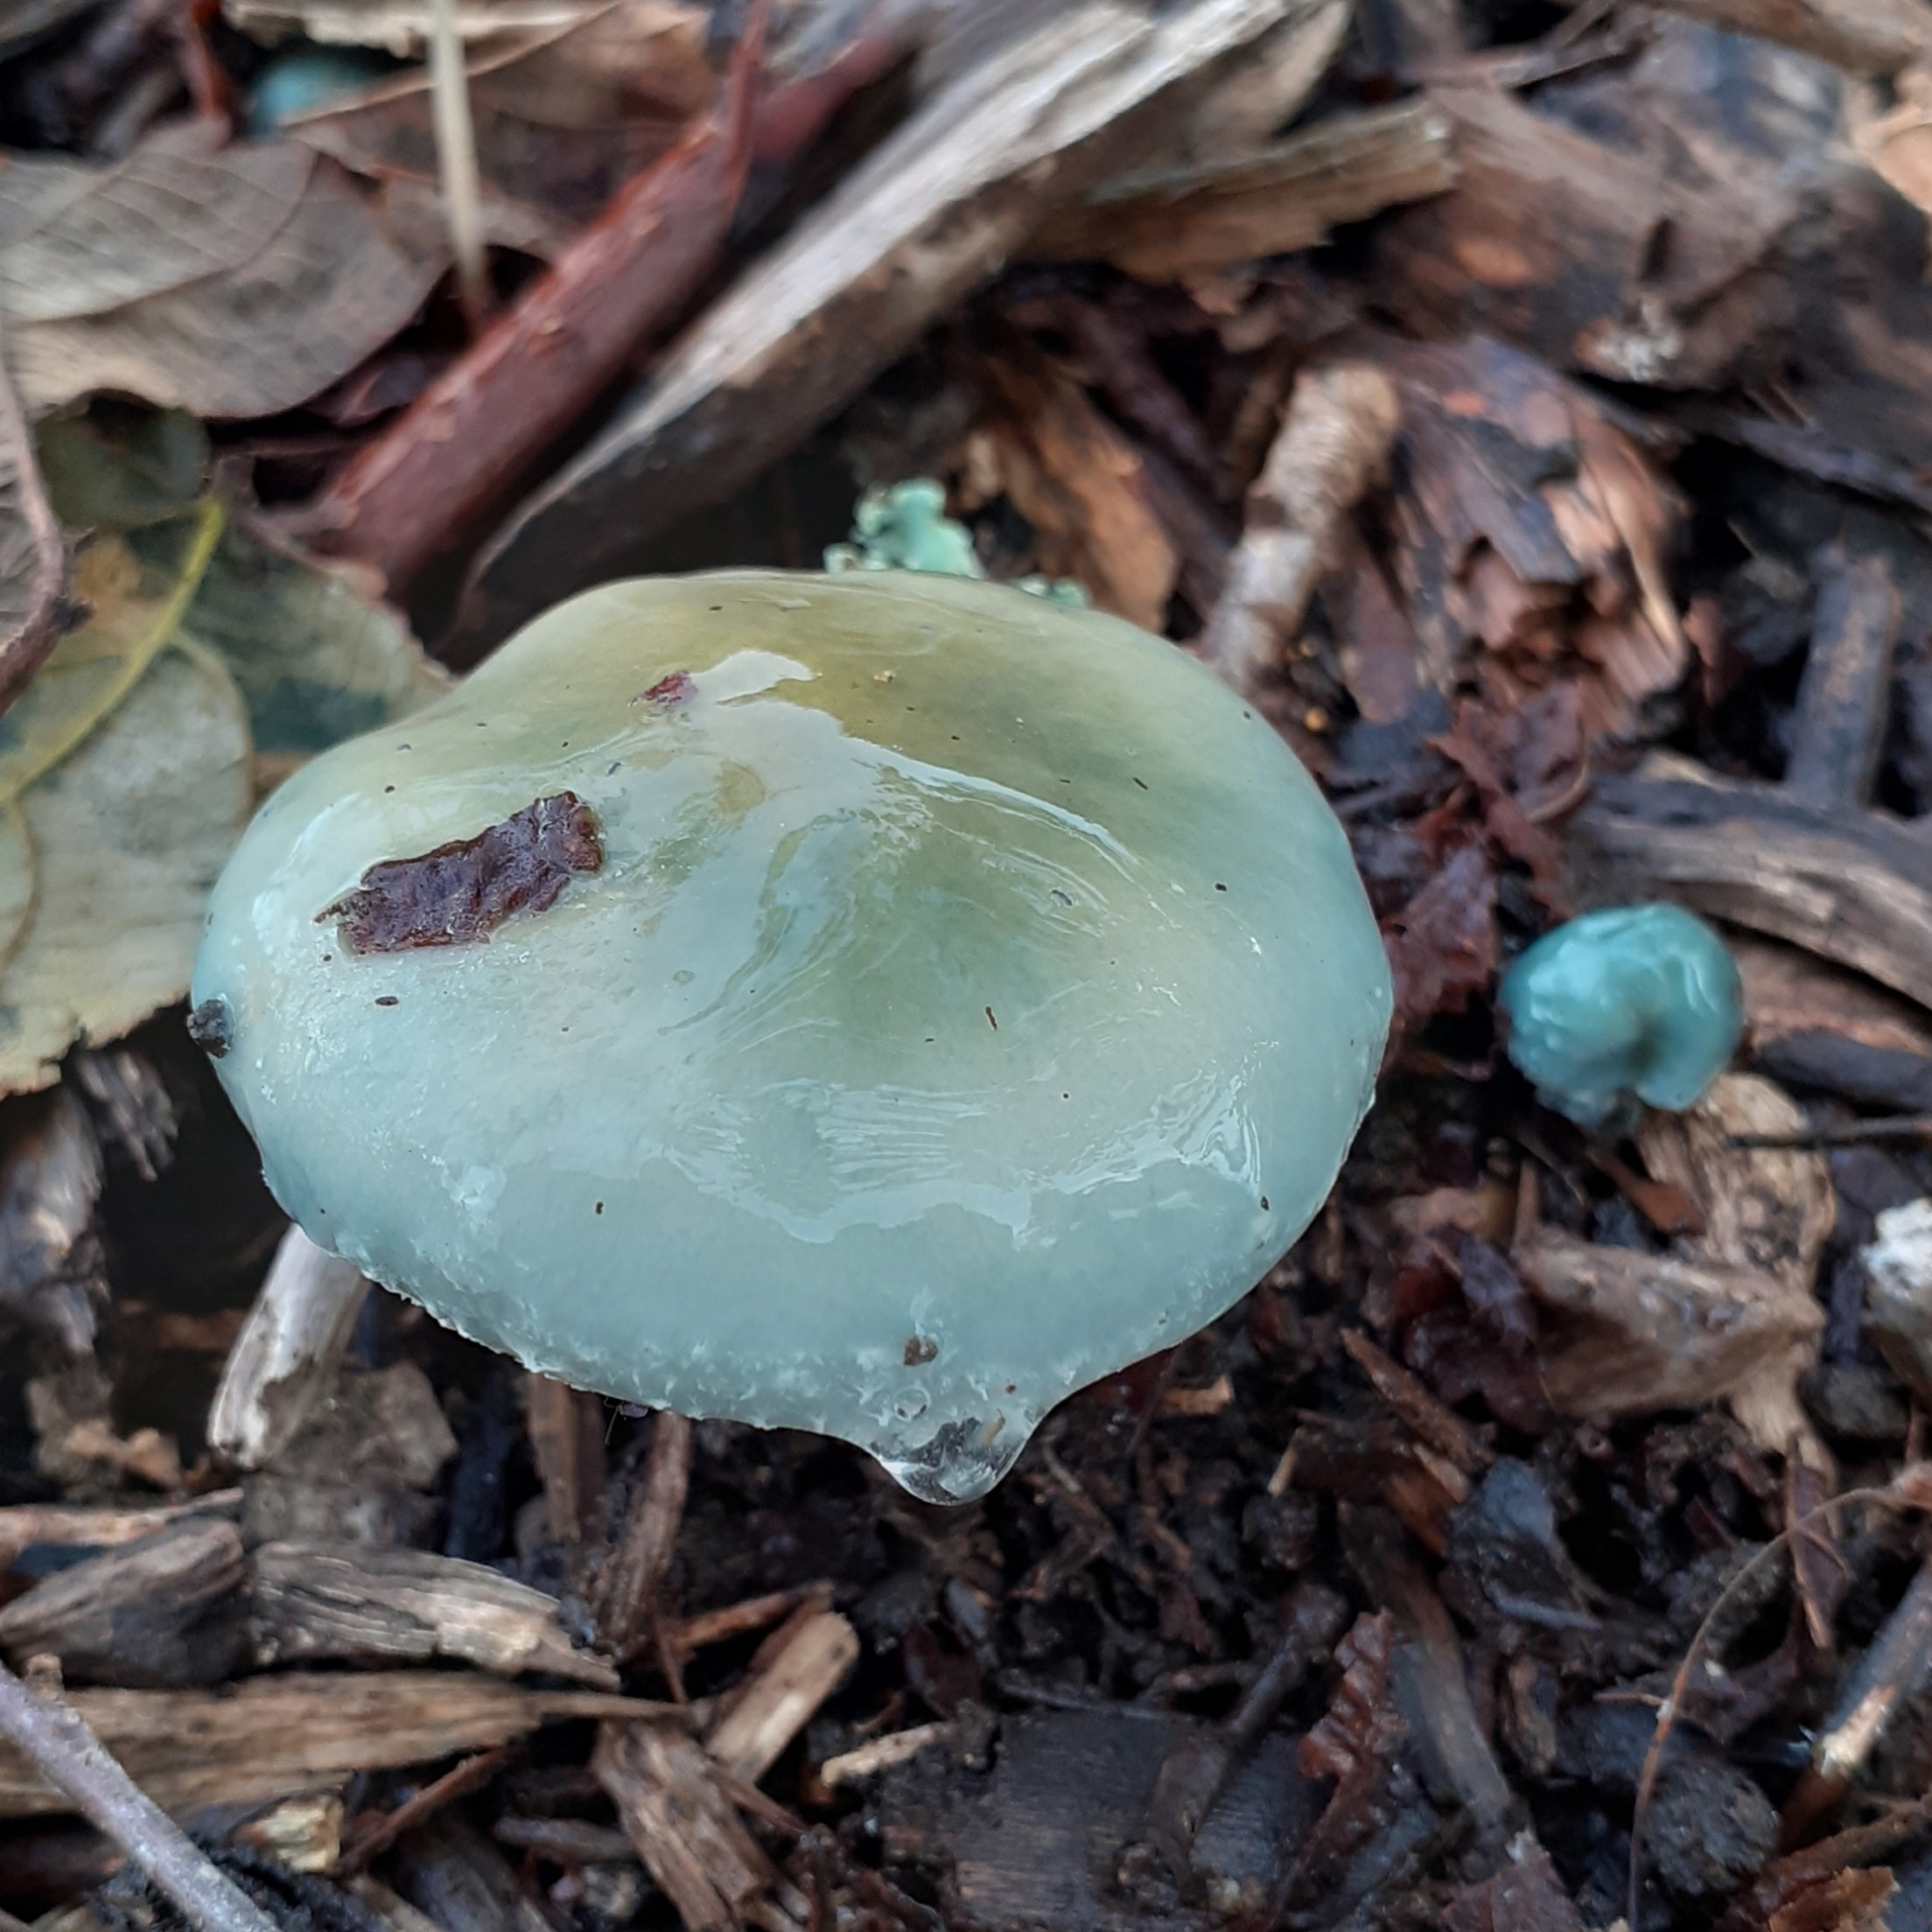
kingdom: Fungi
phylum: Basidiomycota
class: Agaricomycetes
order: Agaricales
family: Strophariaceae
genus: Stropharia
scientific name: Stropharia caerulea
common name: Blue roundhead
